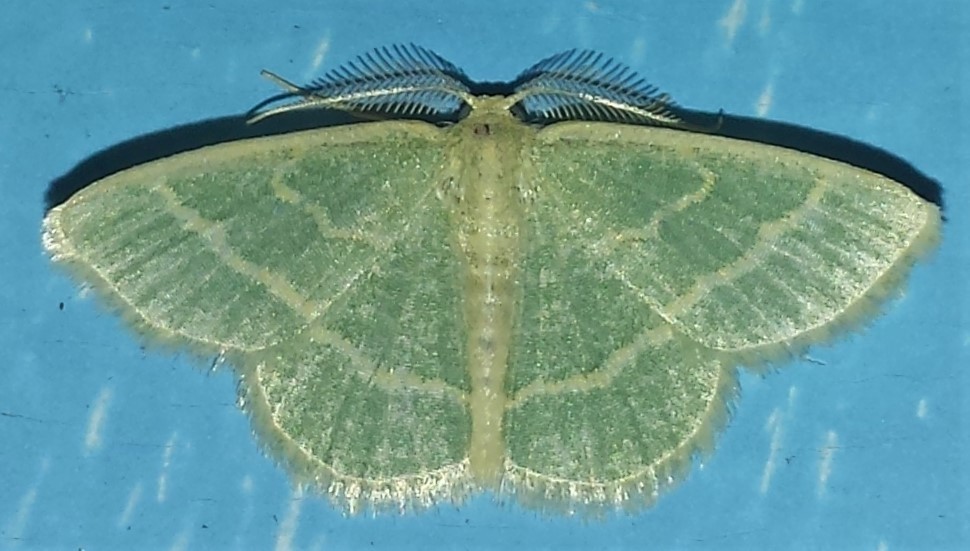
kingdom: Animalia
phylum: Arthropoda
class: Insecta
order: Lepidoptera
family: Geometridae
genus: Chlorochlamys
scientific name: Chlorochlamys chloroleucaria
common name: Blackberry looper
